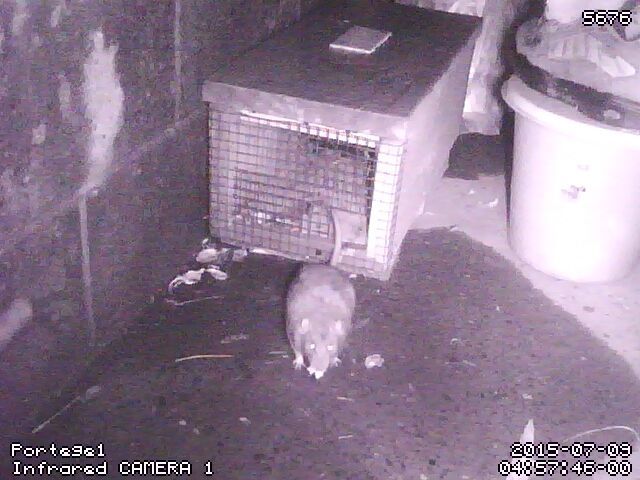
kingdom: Animalia
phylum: Chordata
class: Mammalia
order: Rodentia
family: Muridae
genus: Rattus
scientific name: Rattus norvegicus
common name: Brown rat
